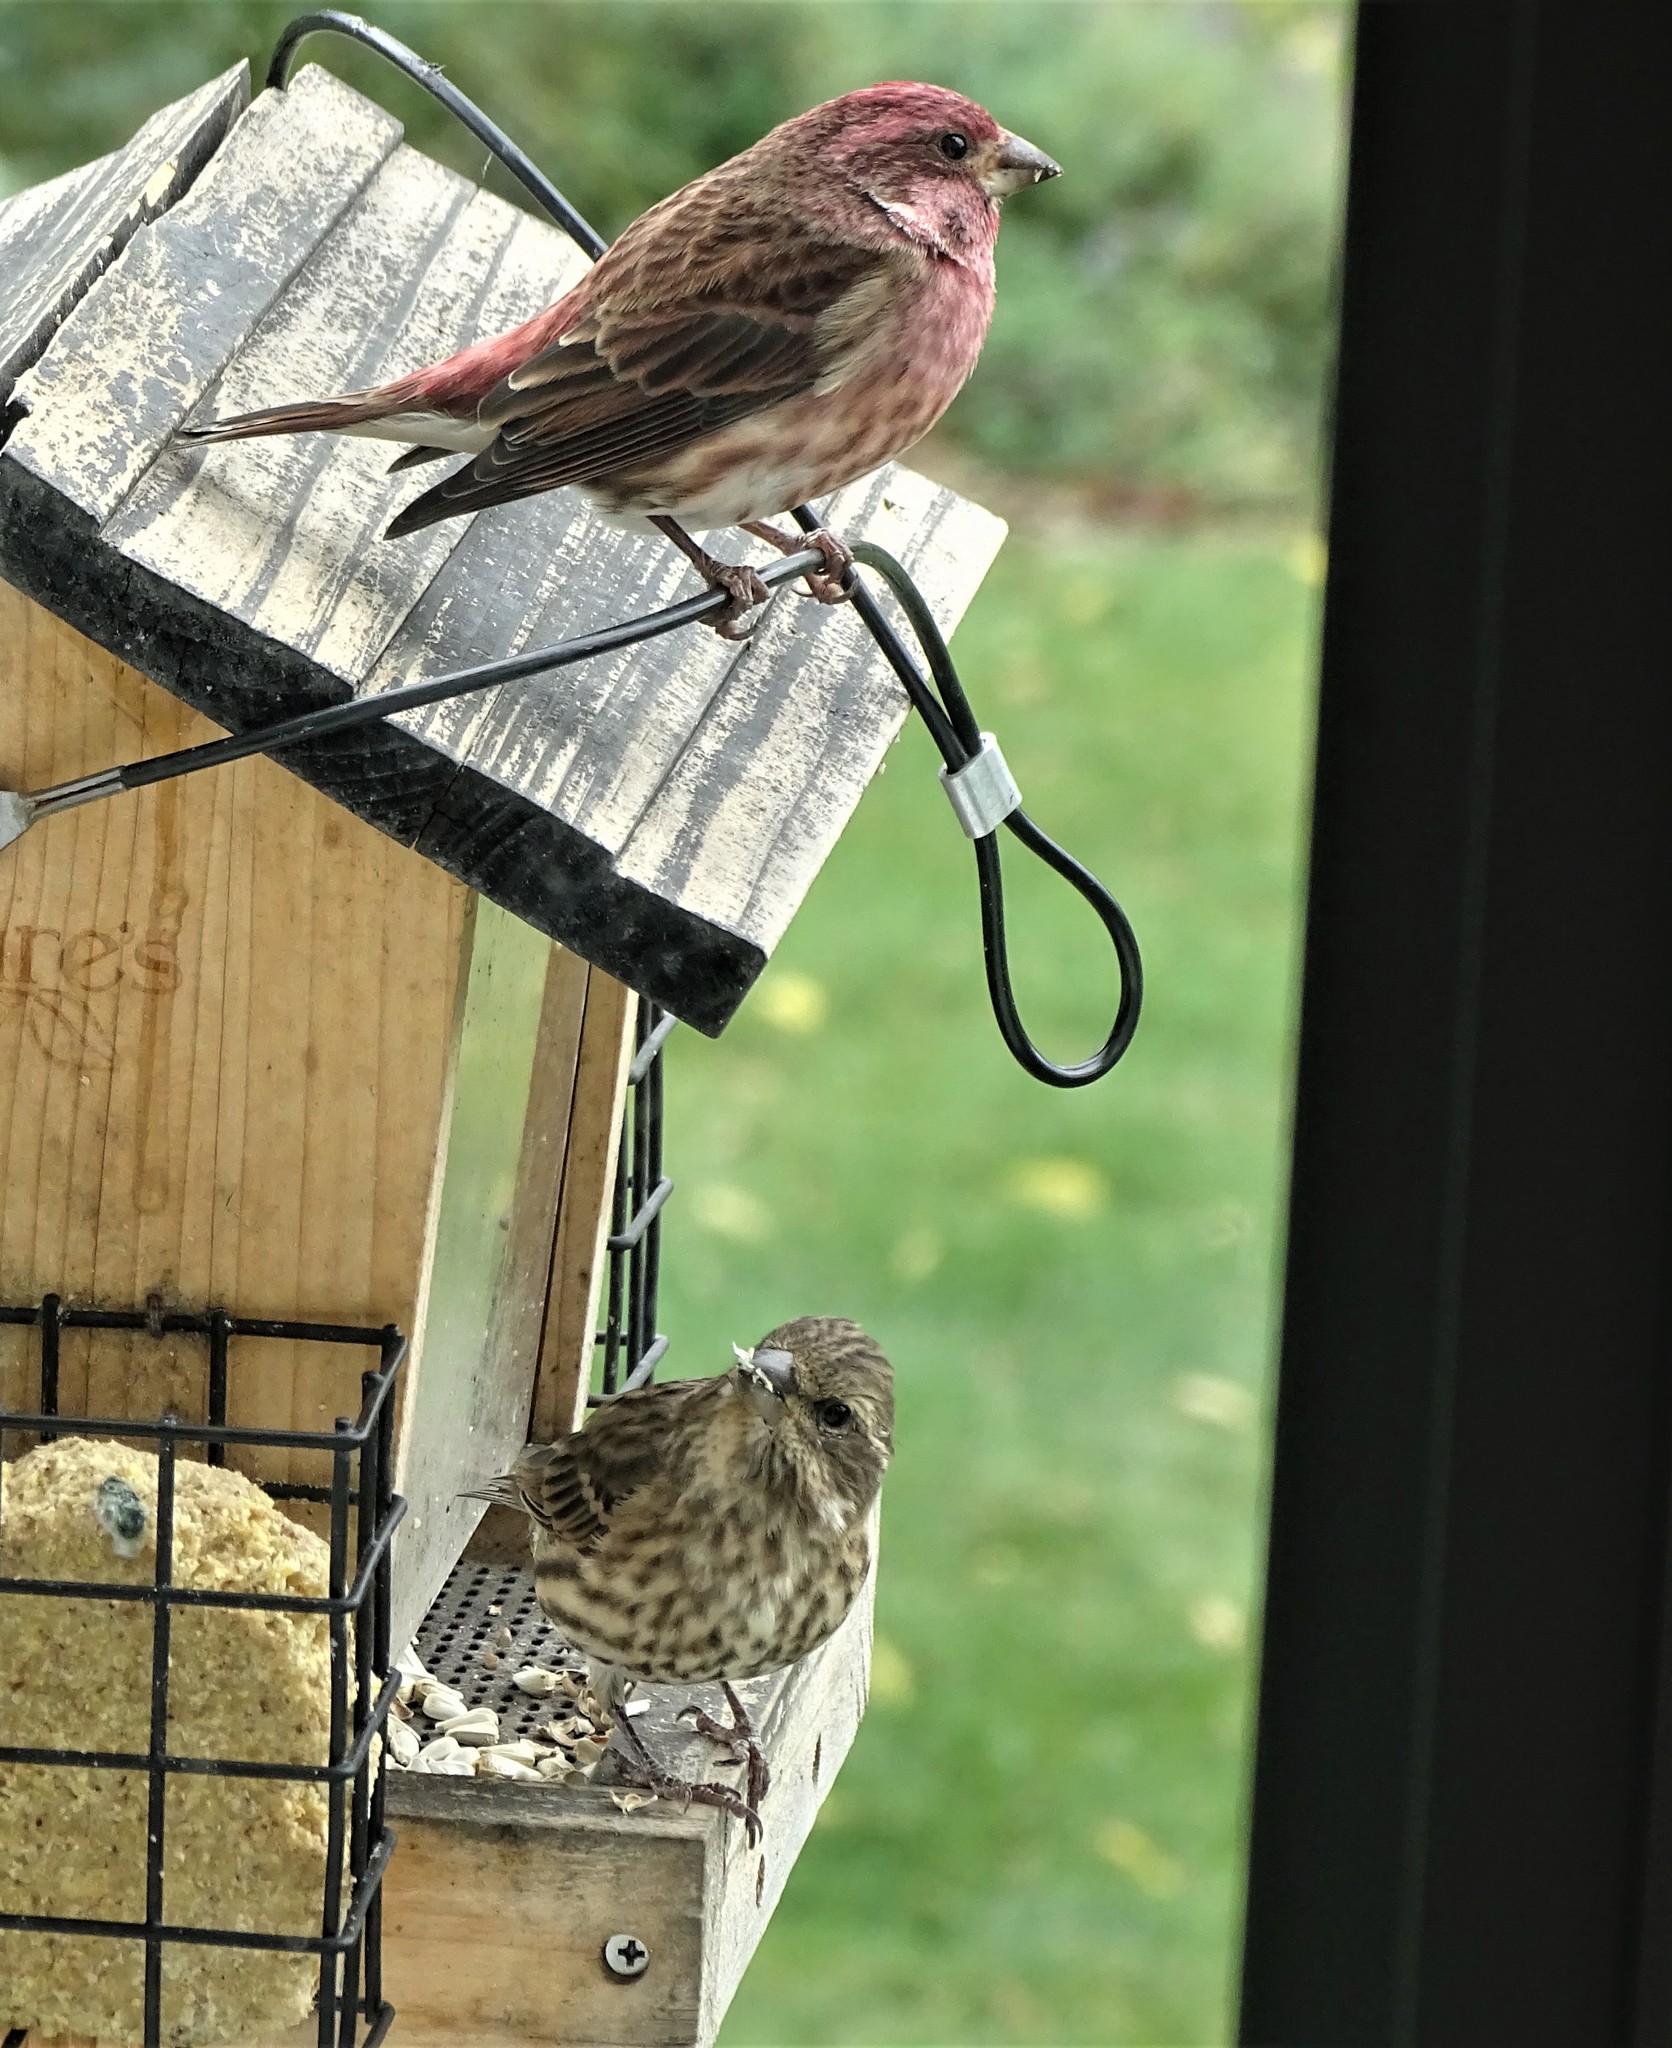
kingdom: Animalia
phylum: Chordata
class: Aves
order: Passeriformes
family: Fringillidae
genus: Haemorhous
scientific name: Haemorhous purpureus
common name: Purple finch
